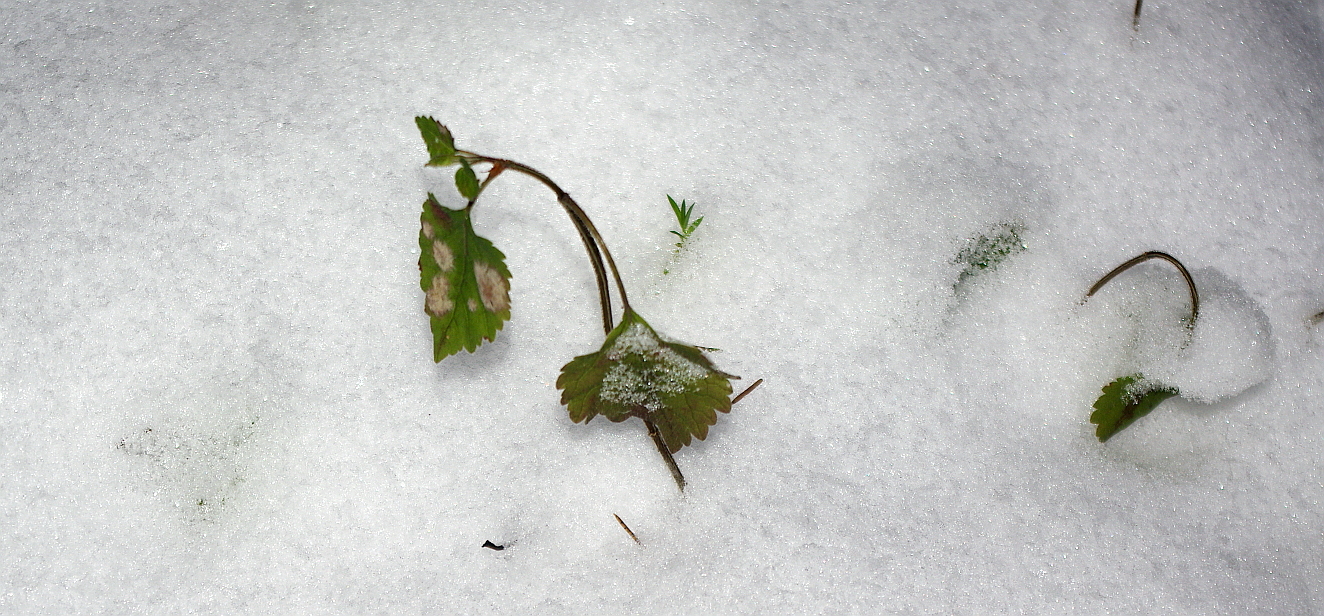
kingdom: Plantae
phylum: Tracheophyta
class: Magnoliopsida
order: Lamiales
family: Lamiaceae
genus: Lamium
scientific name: Lamium galeobdolon
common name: Yellow archangel
